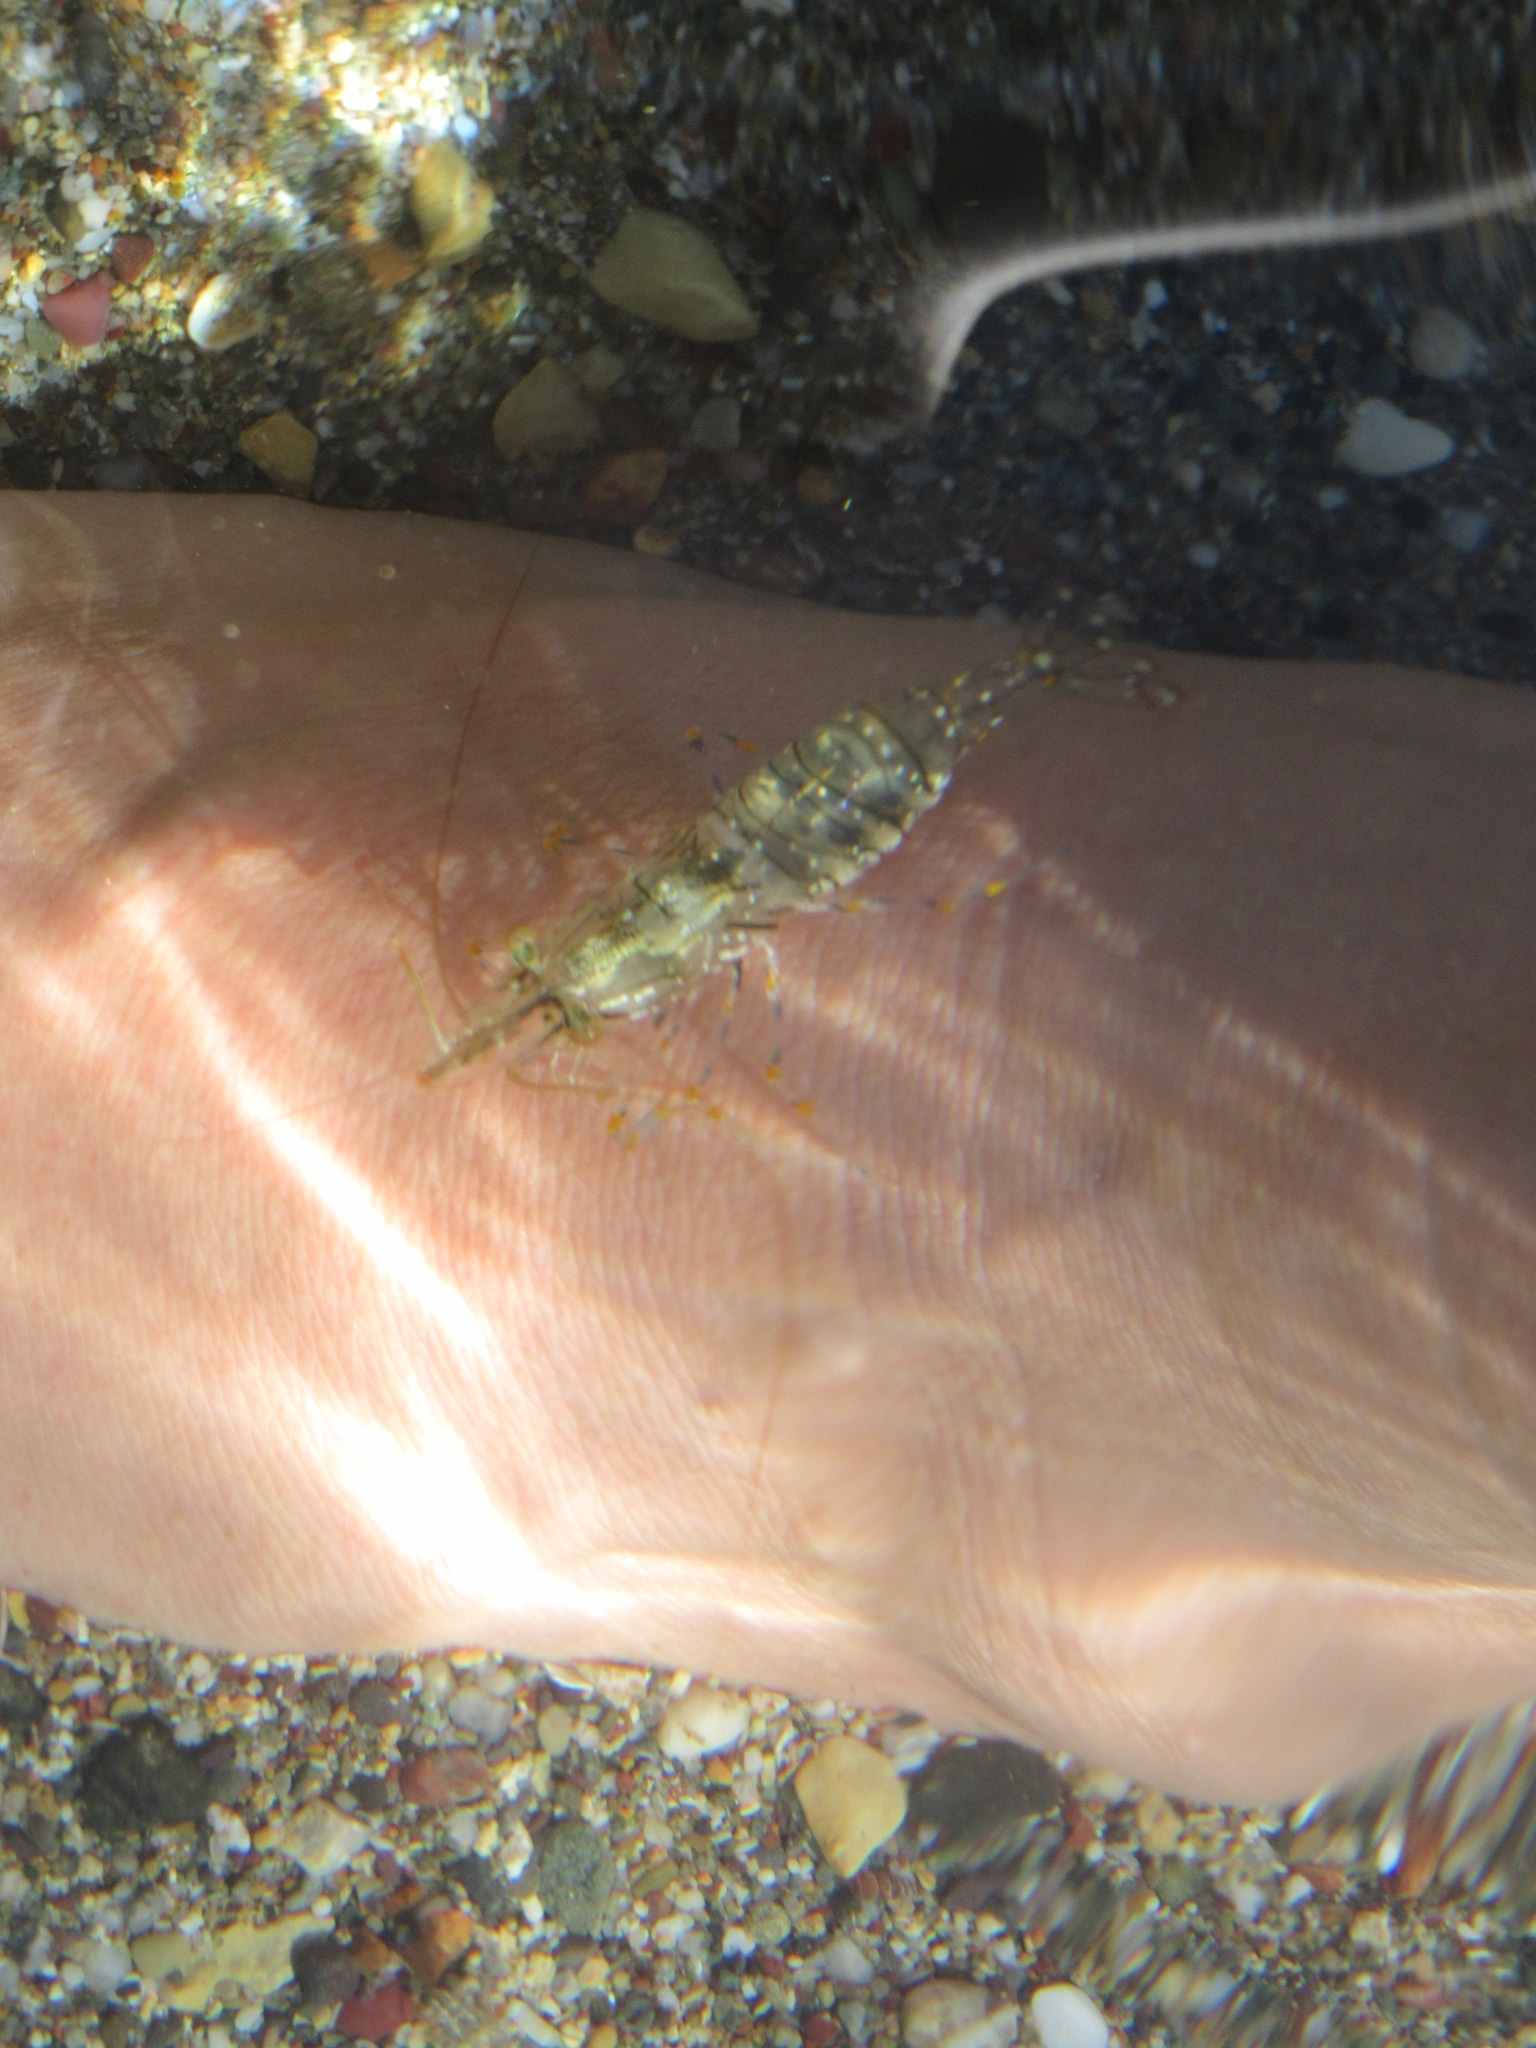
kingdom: Animalia
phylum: Arthropoda
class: Malacostraca
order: Decapoda
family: Palaemonidae
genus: Palaemon
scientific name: Palaemon elegans
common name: Grass prawm
